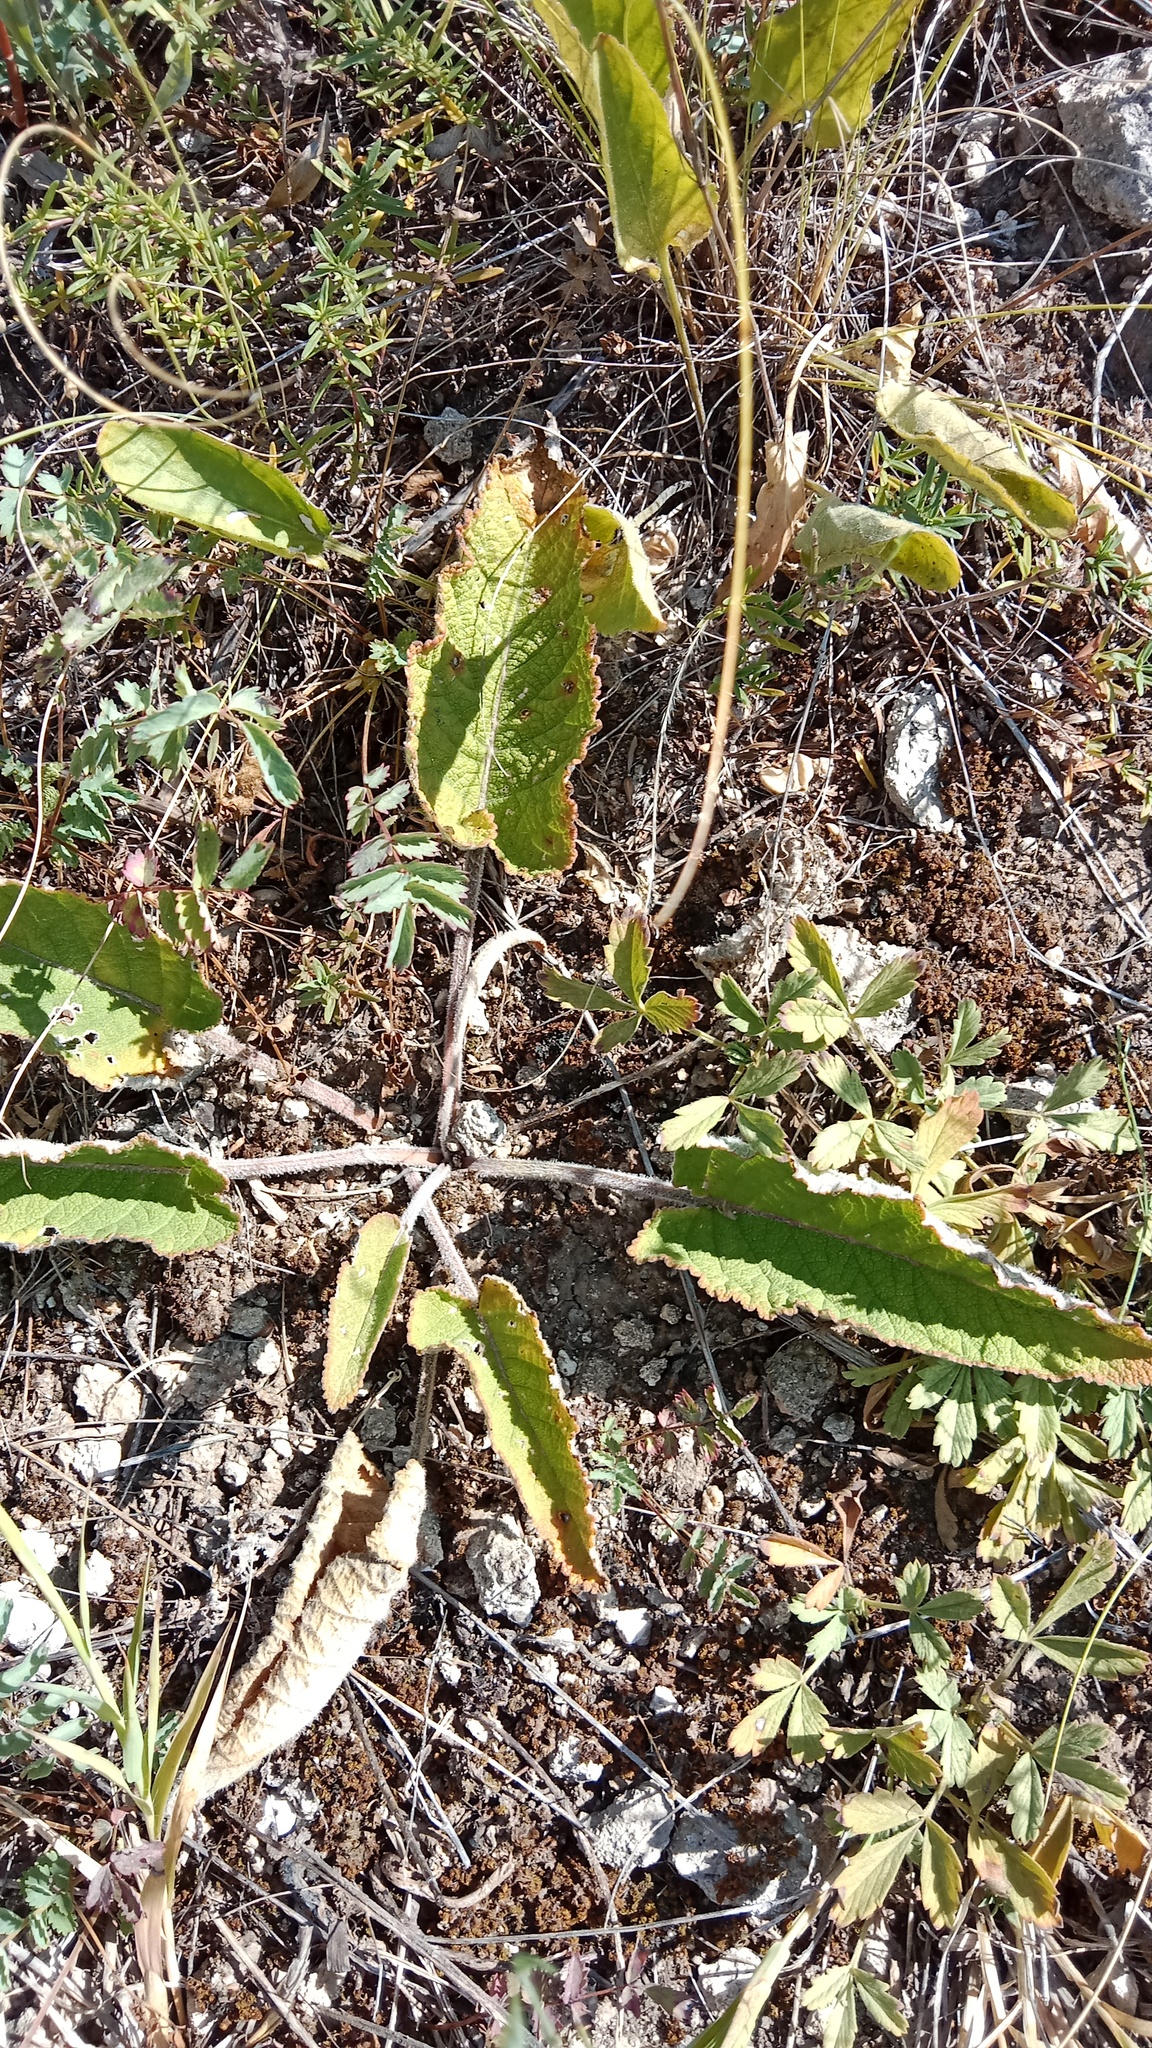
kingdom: Plantae
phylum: Tracheophyta
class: Magnoliopsida
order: Lamiales
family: Lamiaceae
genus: Salvia
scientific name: Salvia nutans
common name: Nodding sage
